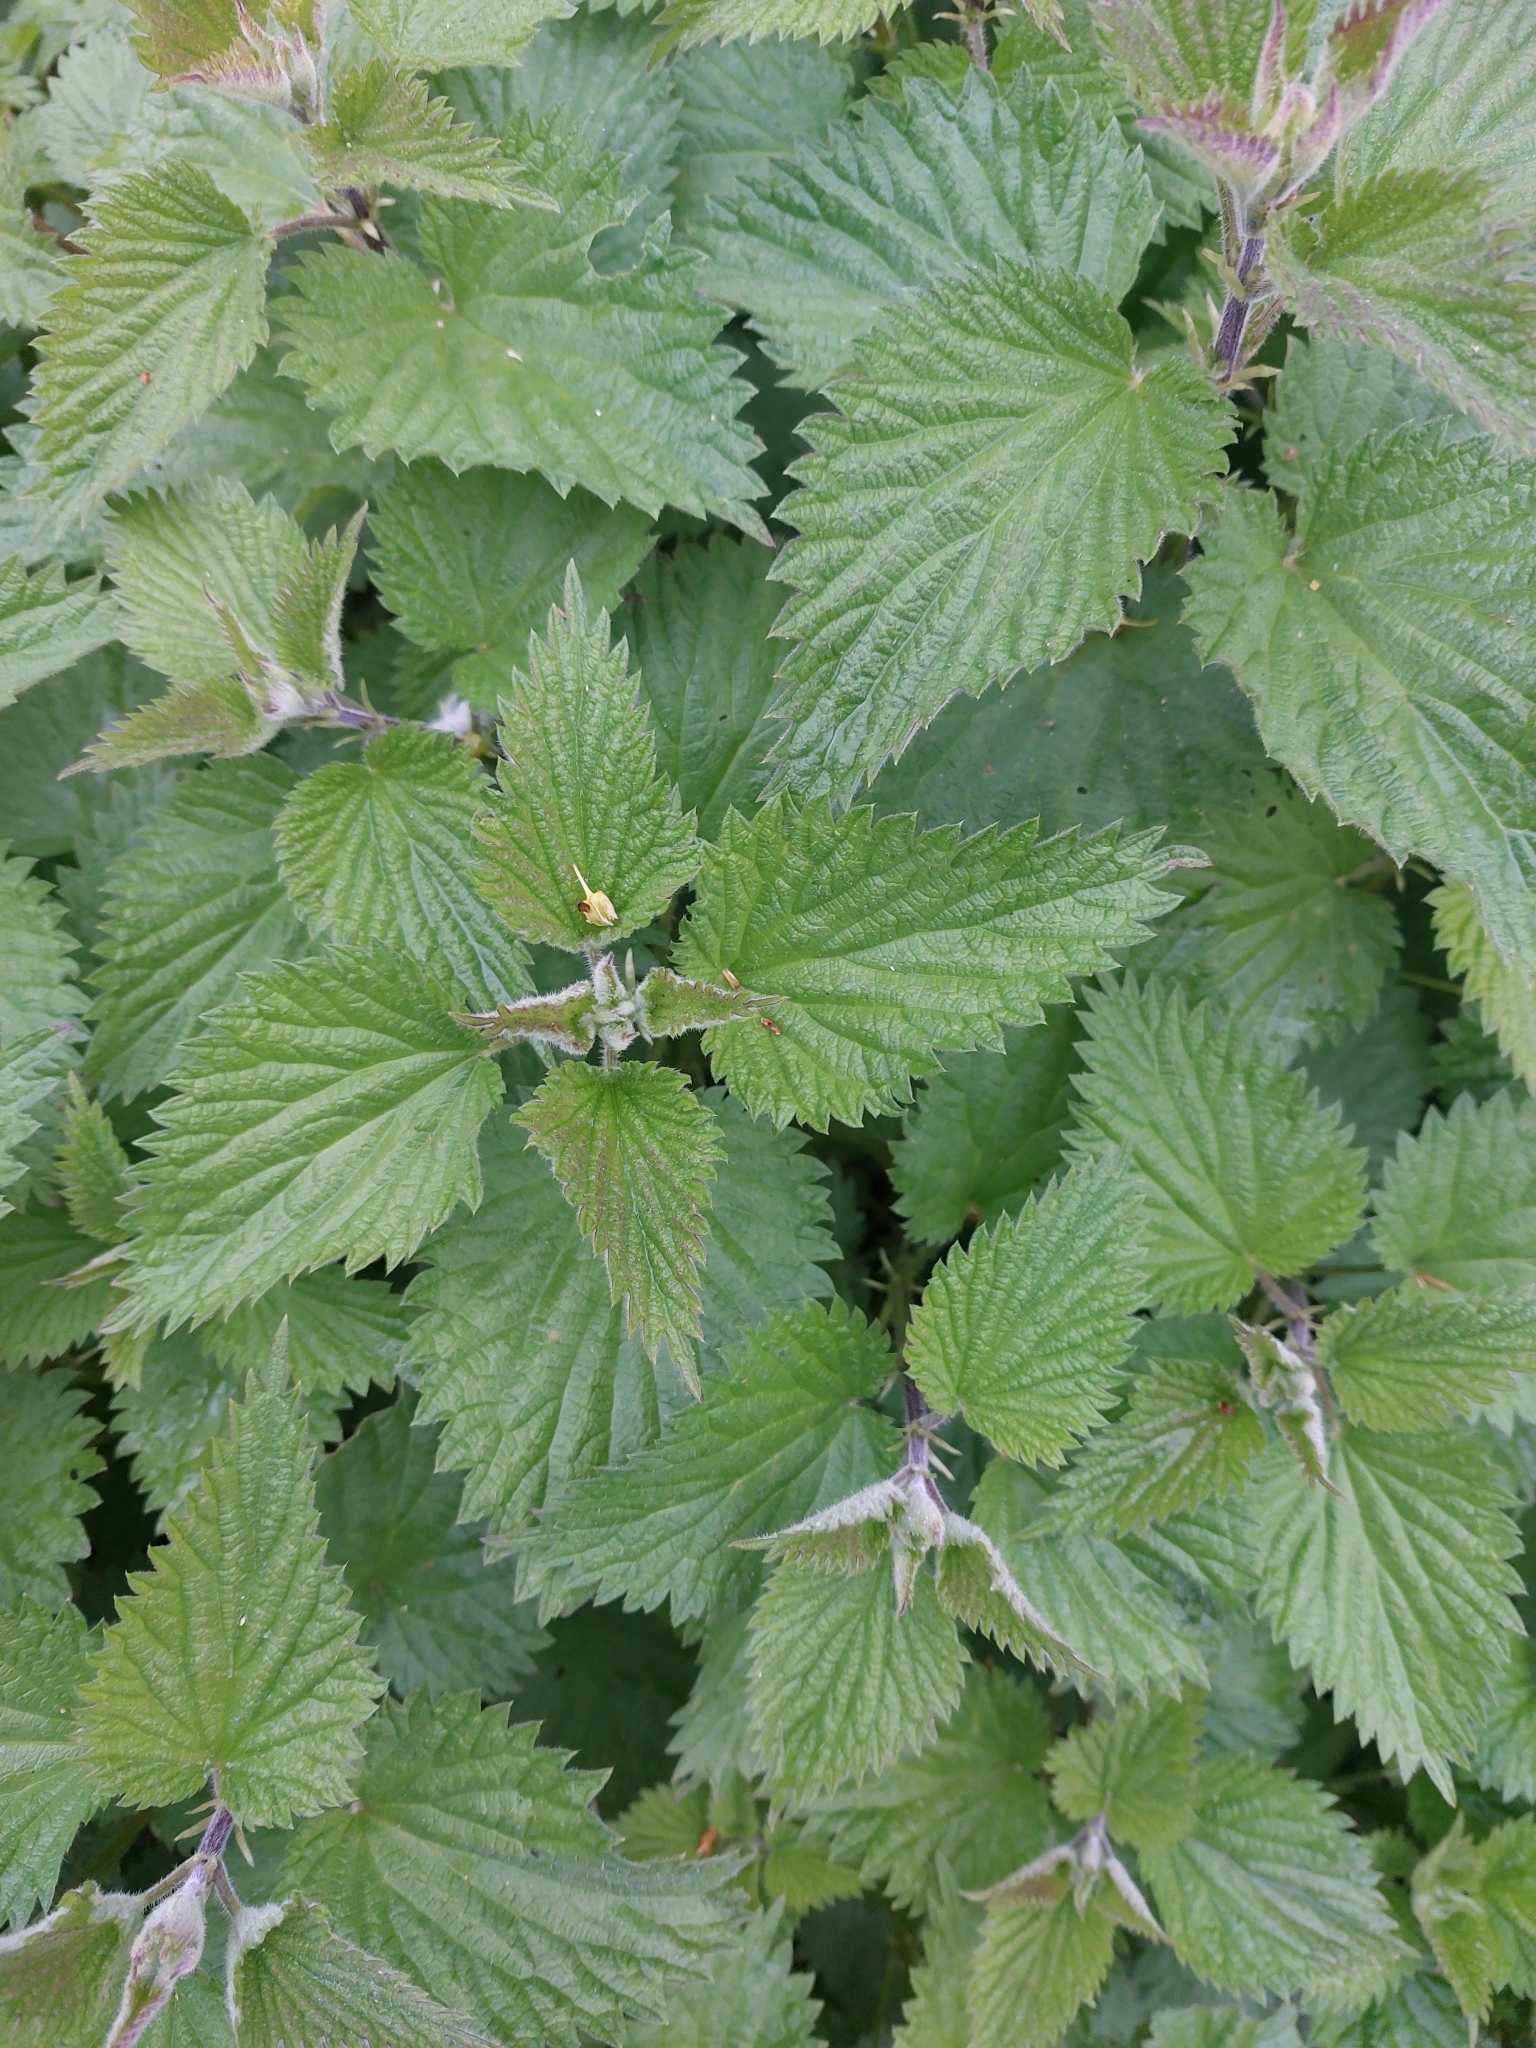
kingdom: Plantae
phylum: Tracheophyta
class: Magnoliopsida
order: Rosales
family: Urticaceae
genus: Urtica
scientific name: Urtica dioica
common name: Common nettle
